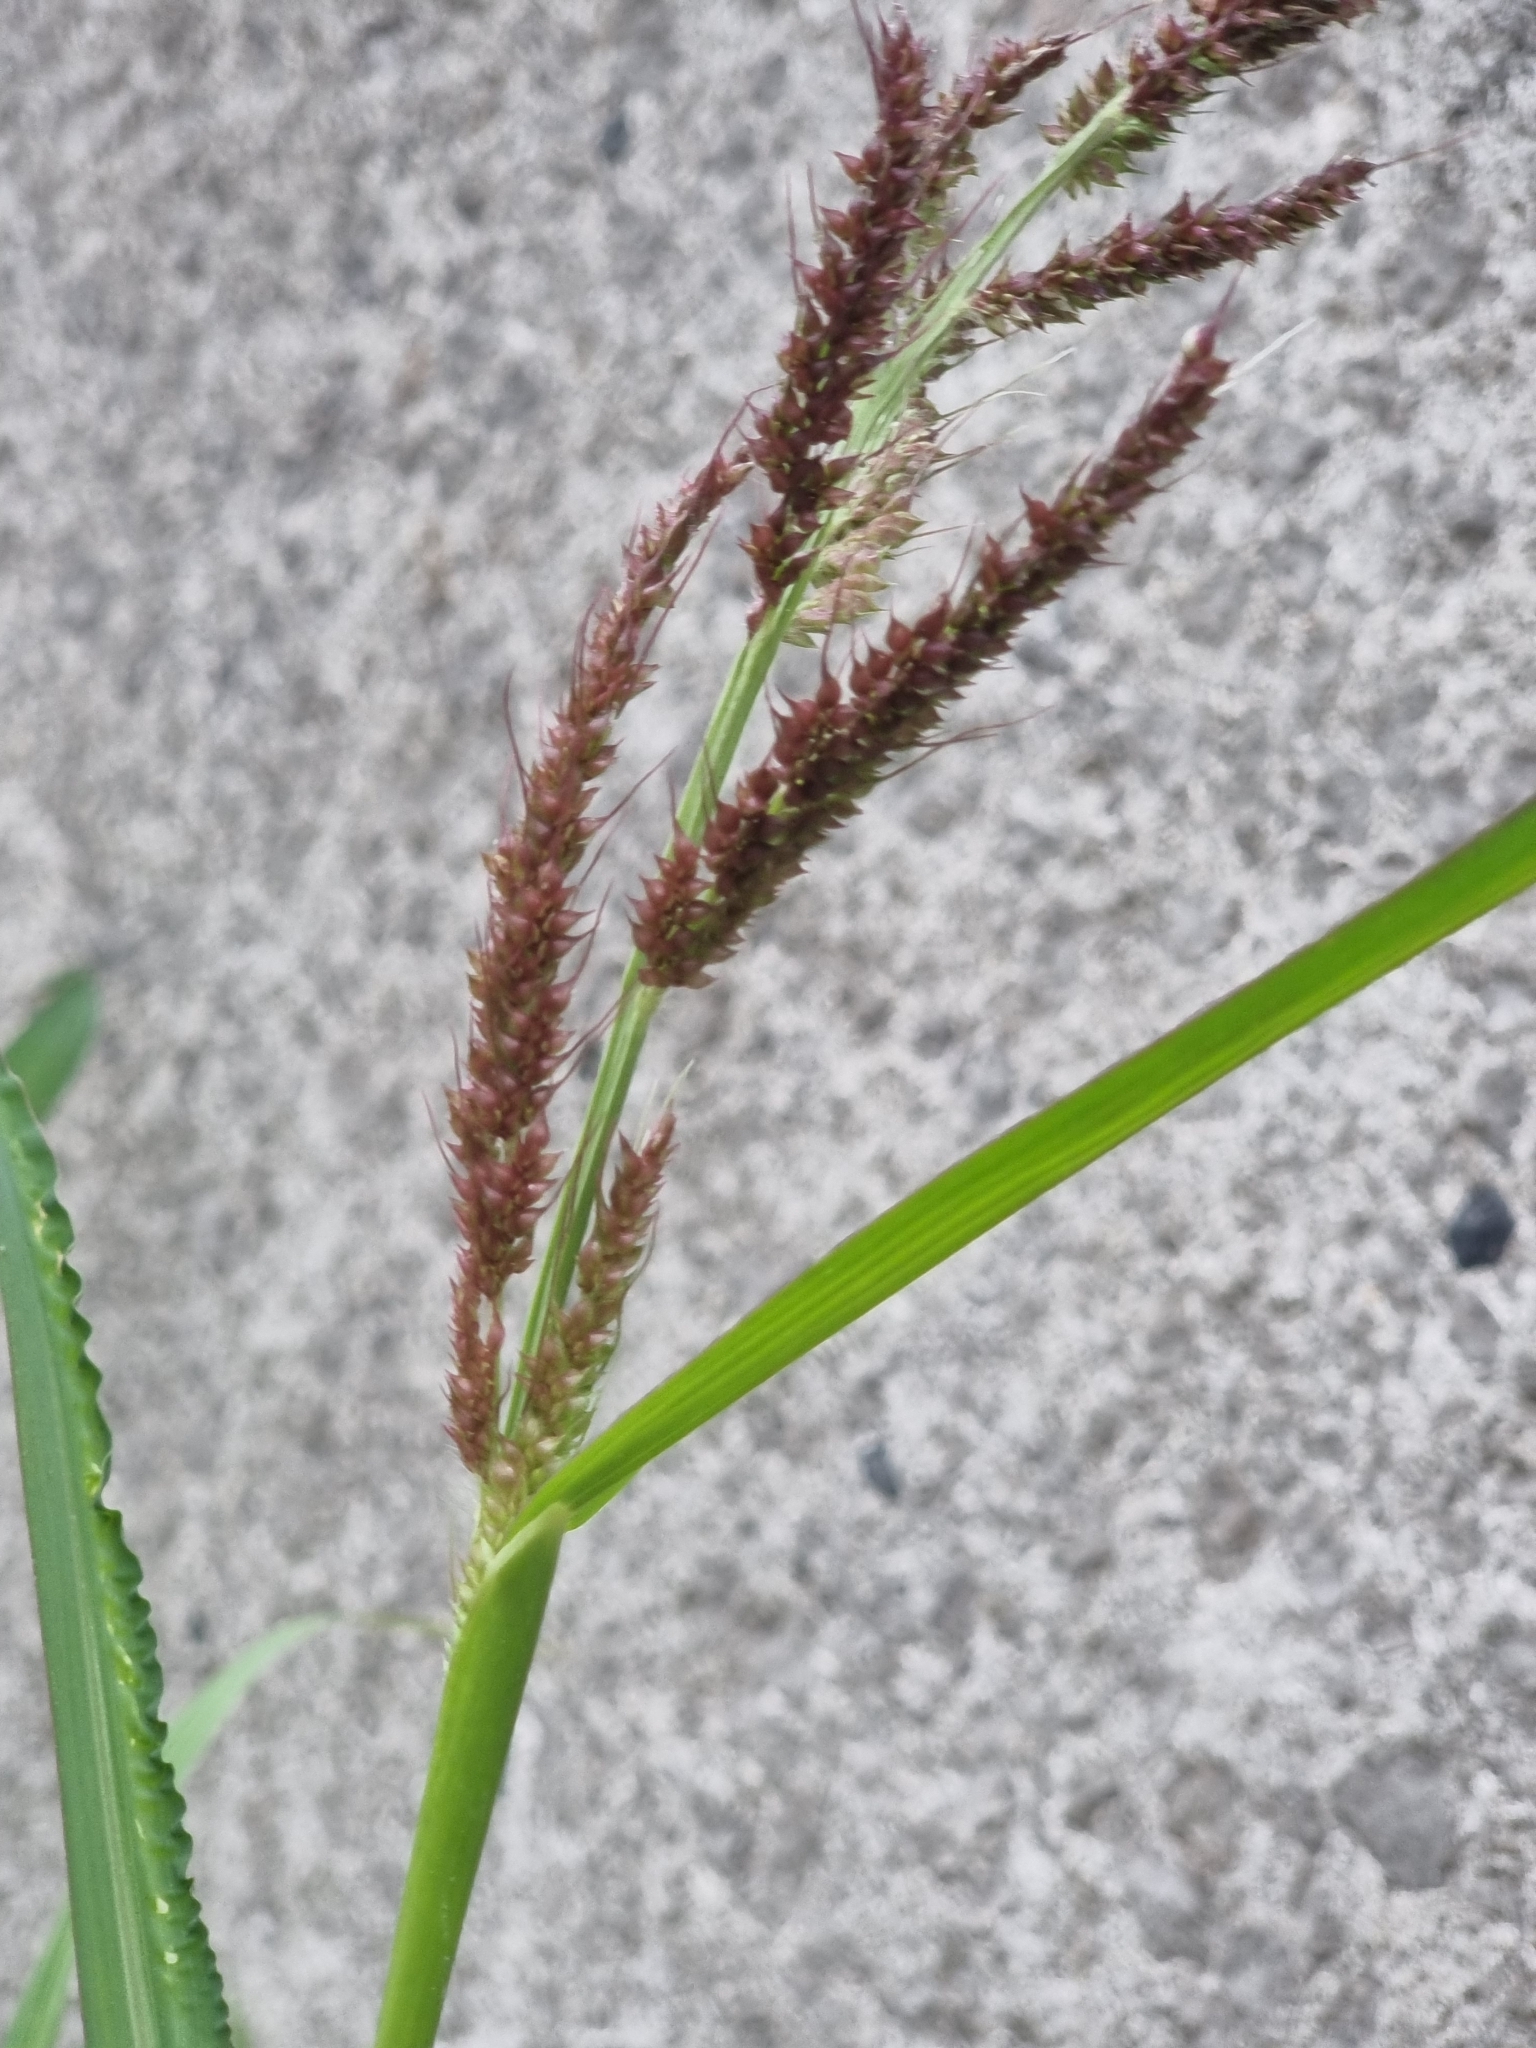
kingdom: Plantae
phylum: Tracheophyta
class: Liliopsida
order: Poales
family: Poaceae
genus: Echinochloa
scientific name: Echinochloa crus-galli
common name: Cockspur
